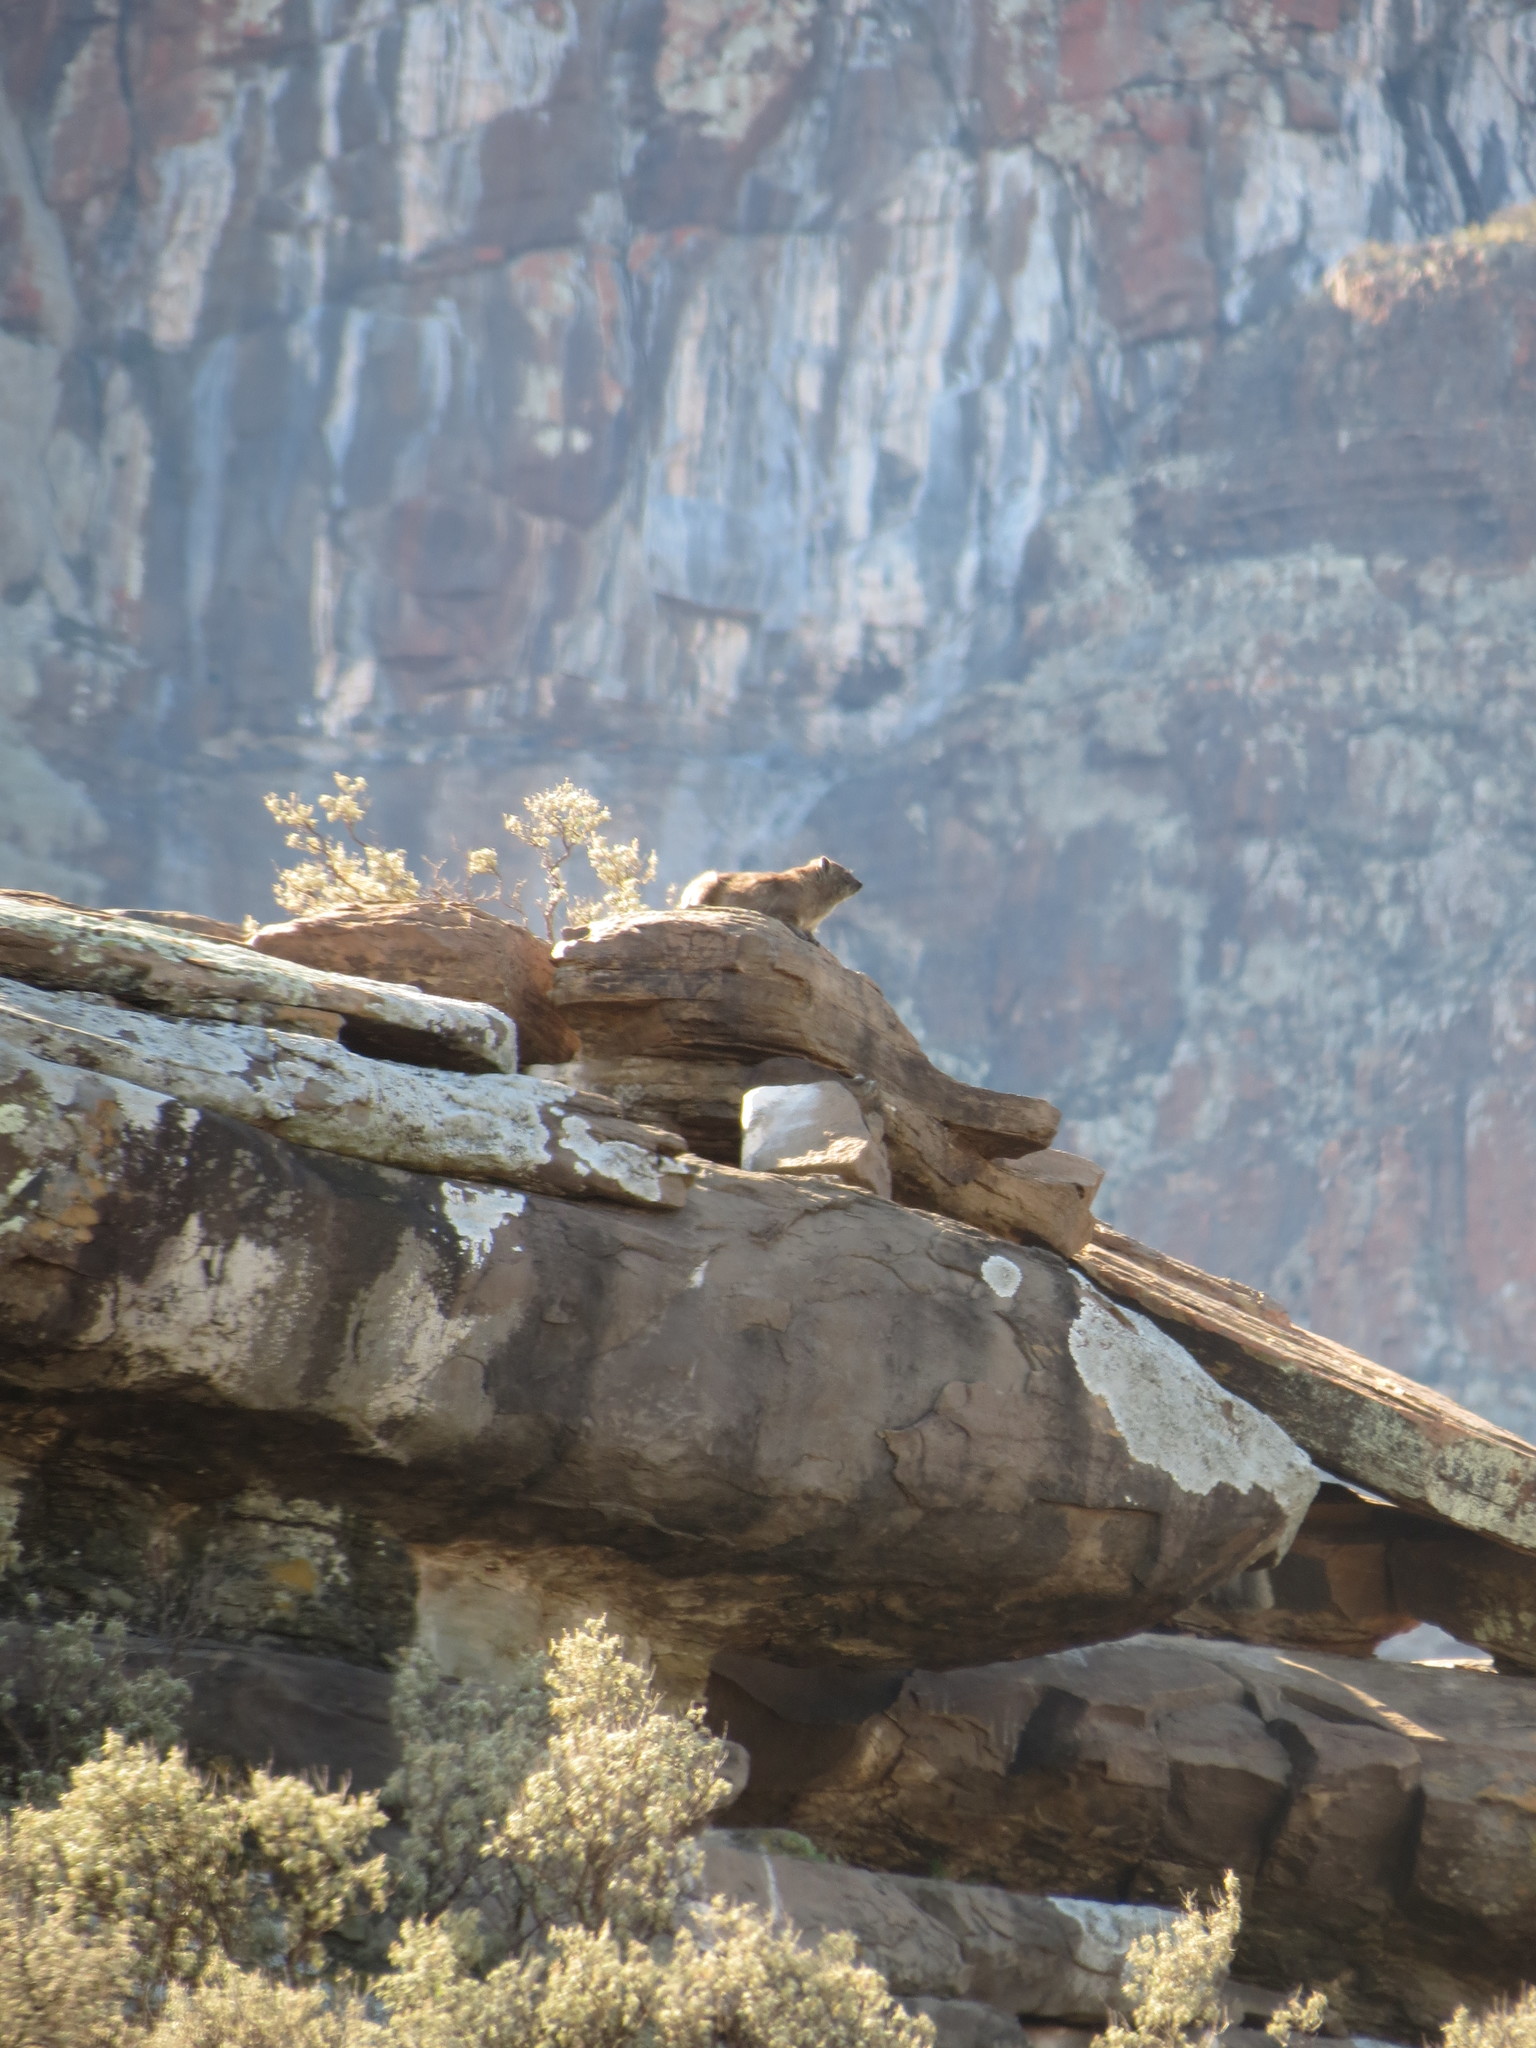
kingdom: Animalia
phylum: Chordata
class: Mammalia
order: Hyracoidea
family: Procaviidae
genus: Procavia
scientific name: Procavia capensis
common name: Rock hyrax
